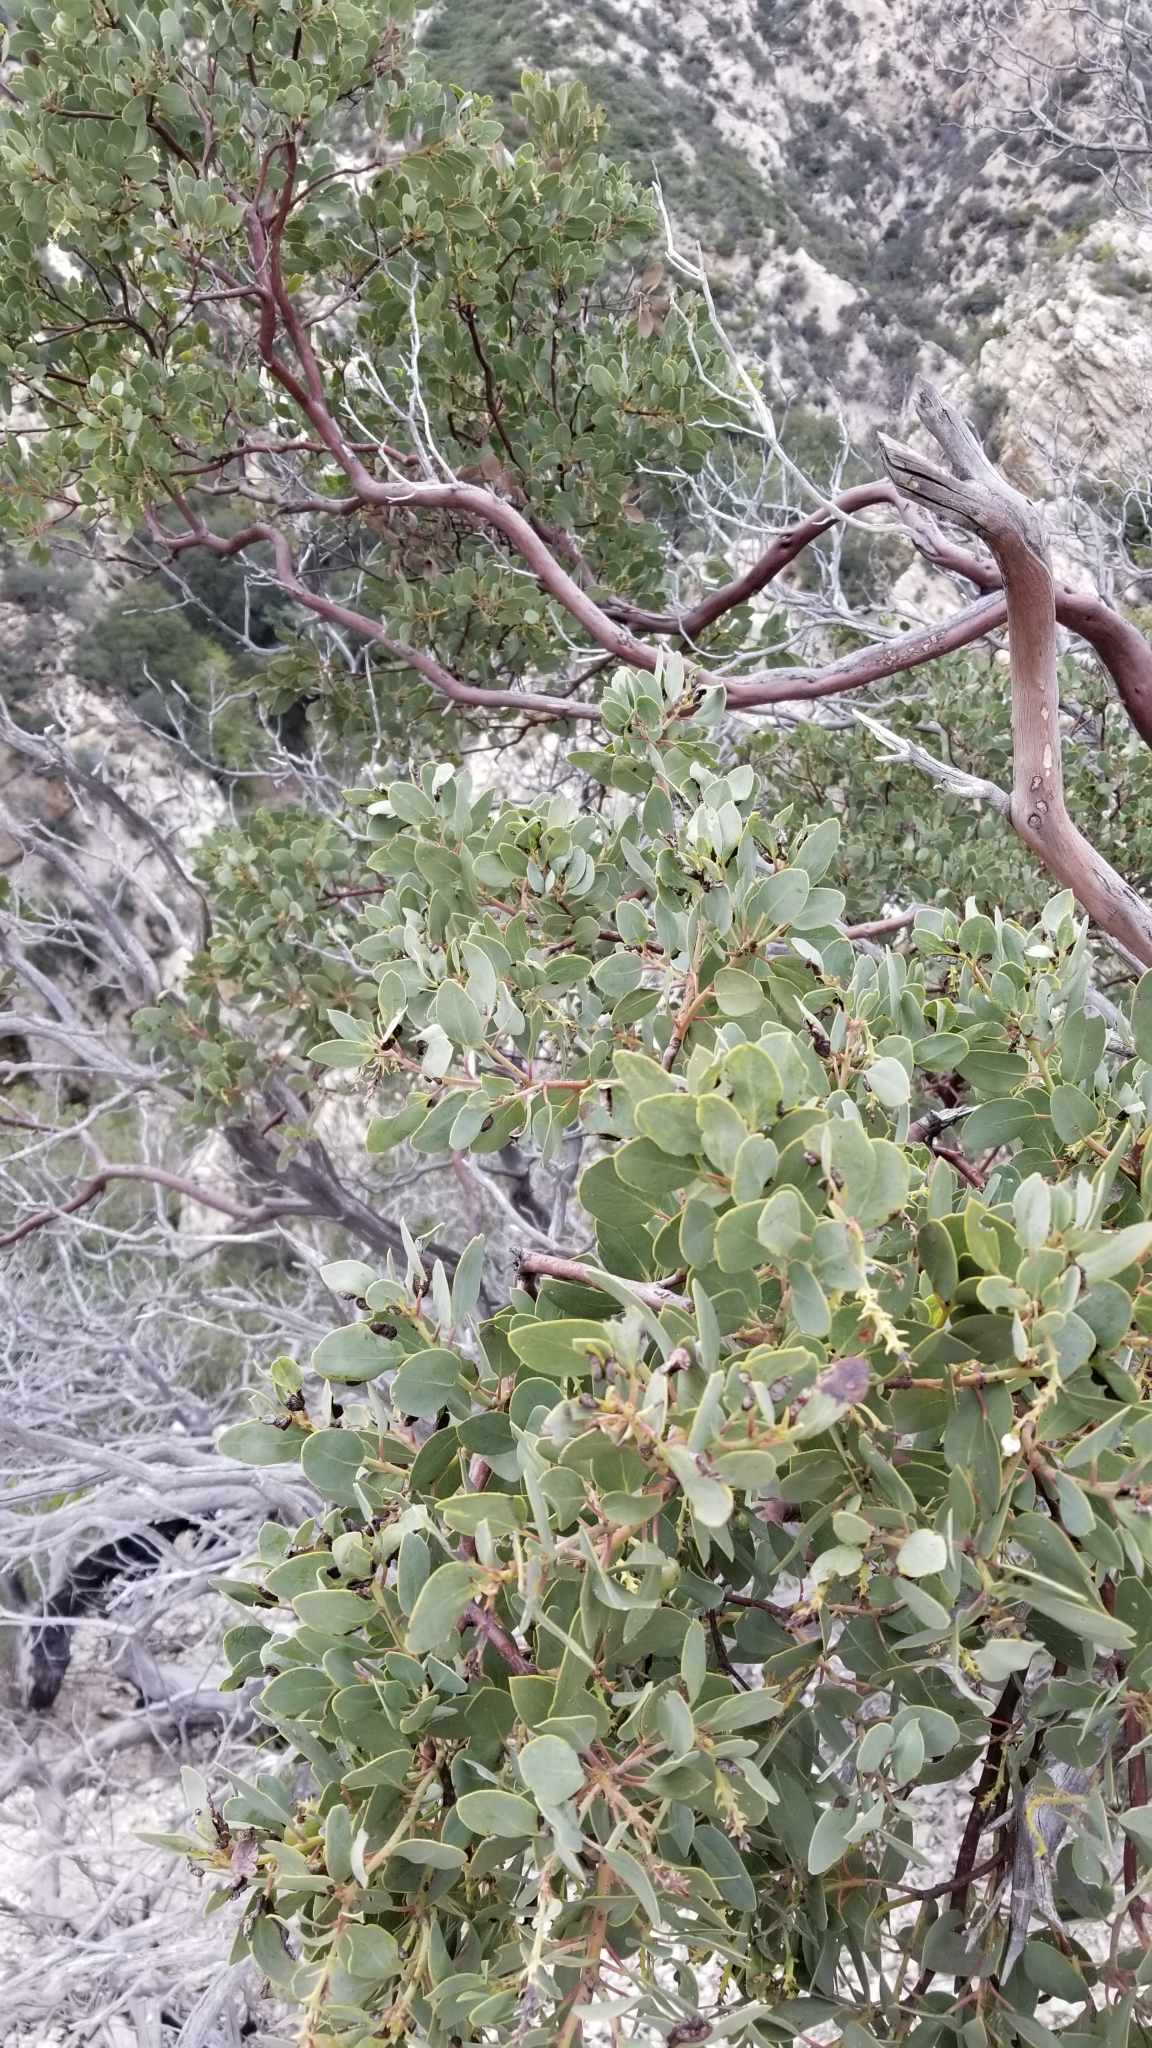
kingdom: Plantae
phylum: Tracheophyta
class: Magnoliopsida
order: Ericales
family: Ericaceae
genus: Arctostaphylos
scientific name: Arctostaphylos glauca
